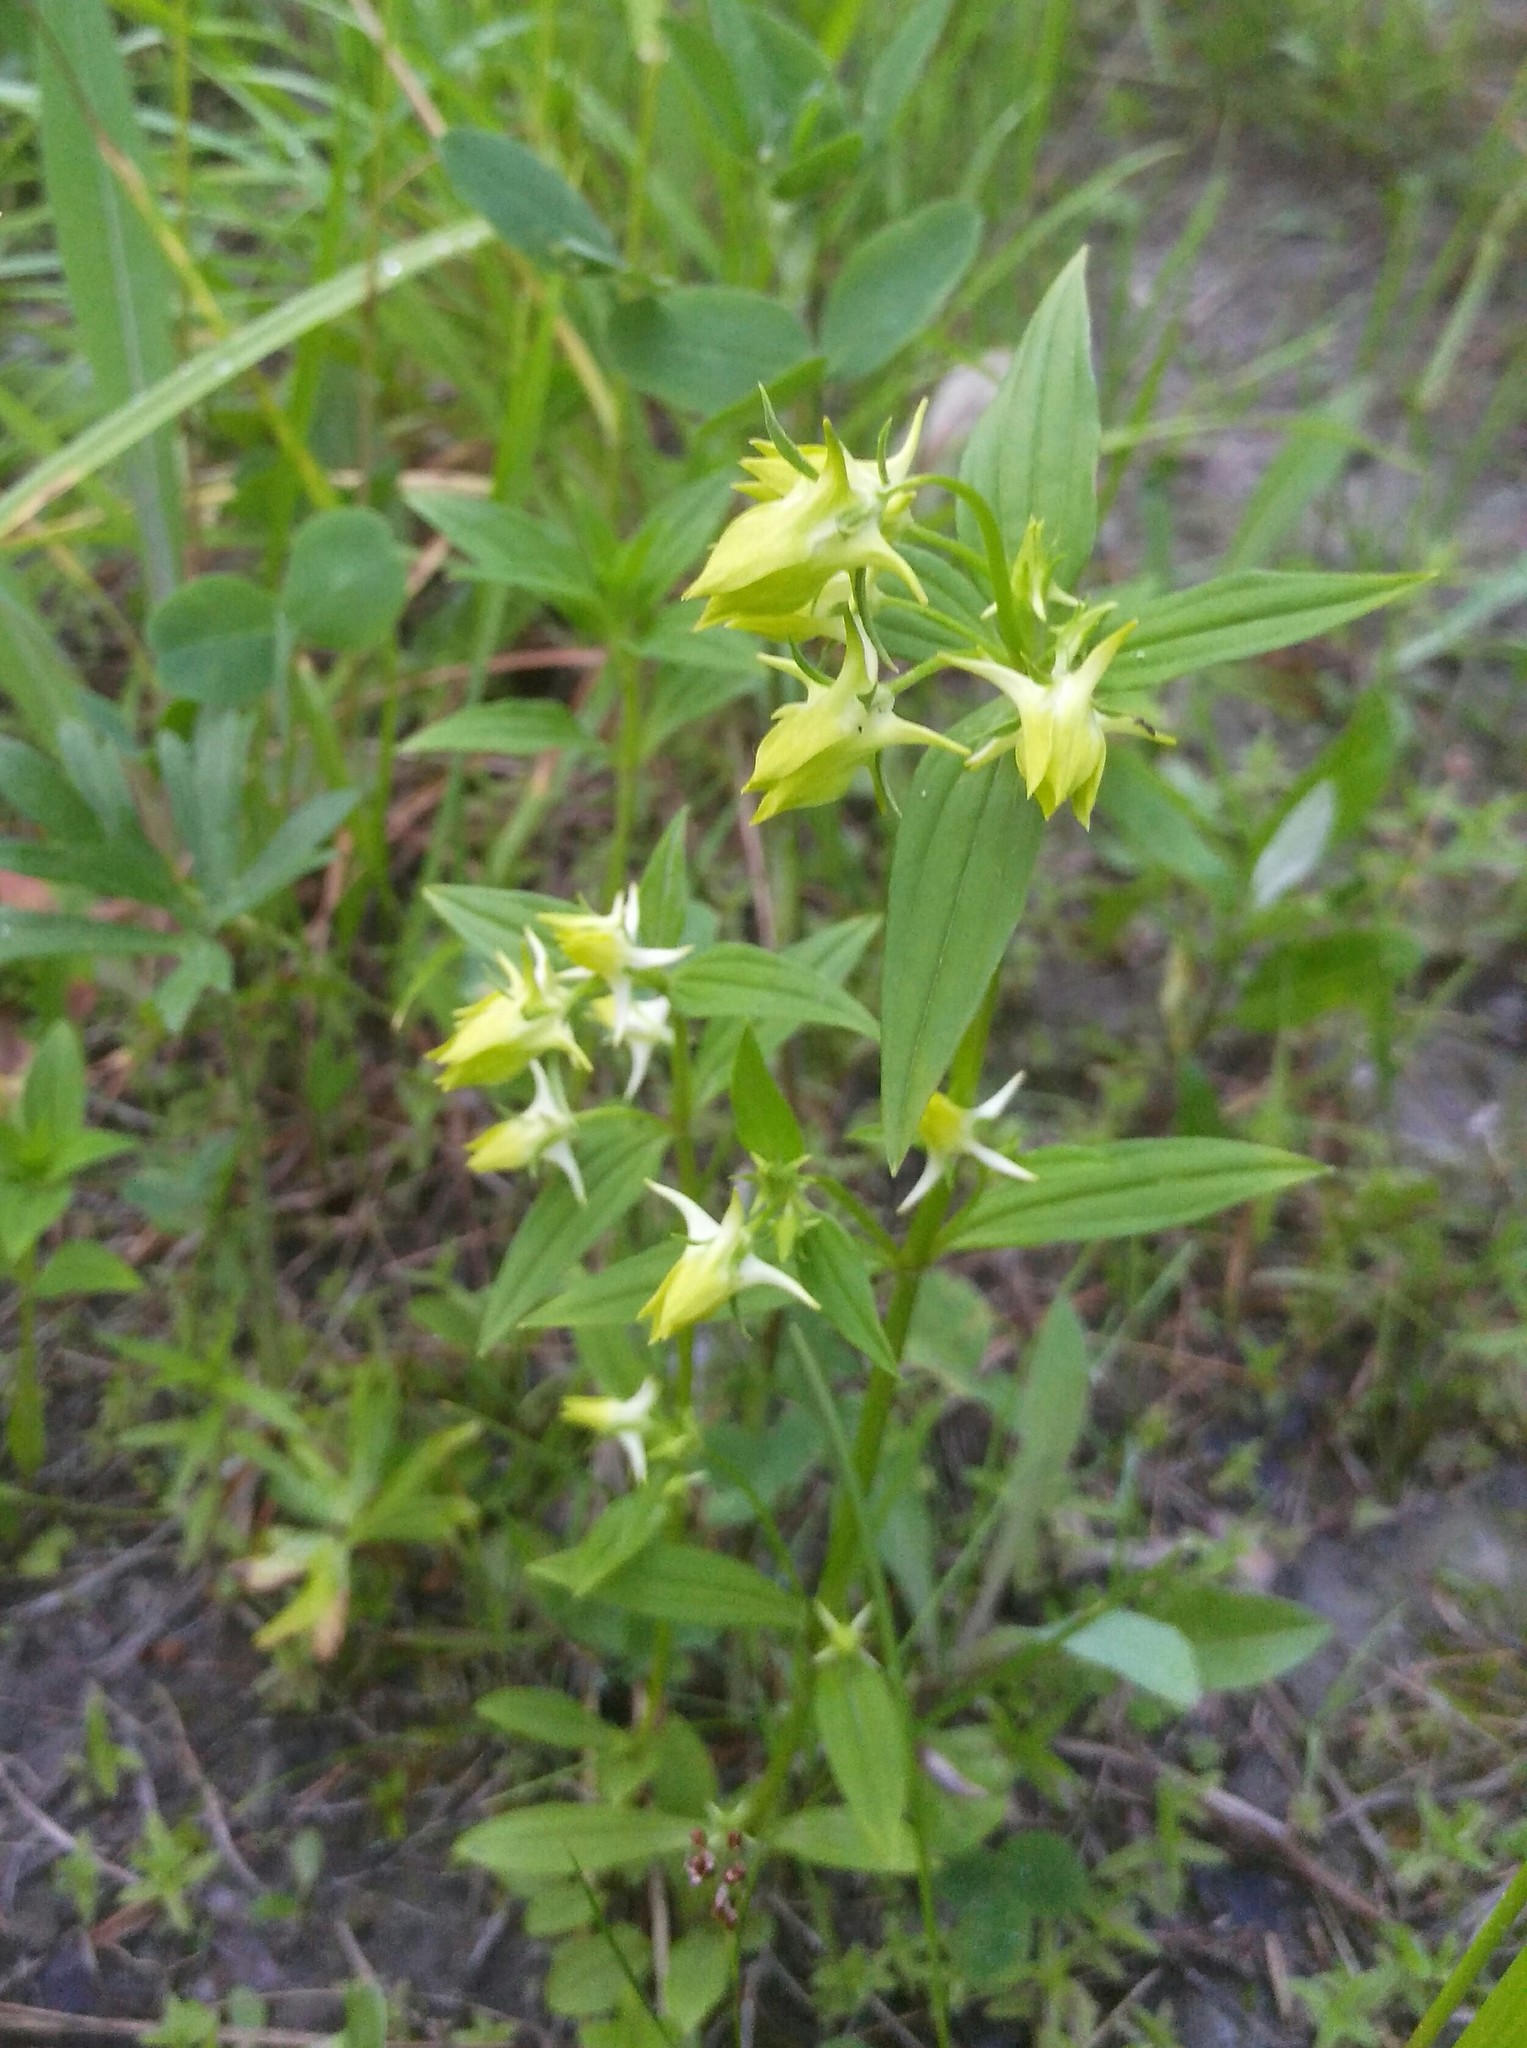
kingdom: Plantae
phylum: Tracheophyta
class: Magnoliopsida
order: Gentianales
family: Gentianaceae
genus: Halenia
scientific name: Halenia corniculata
